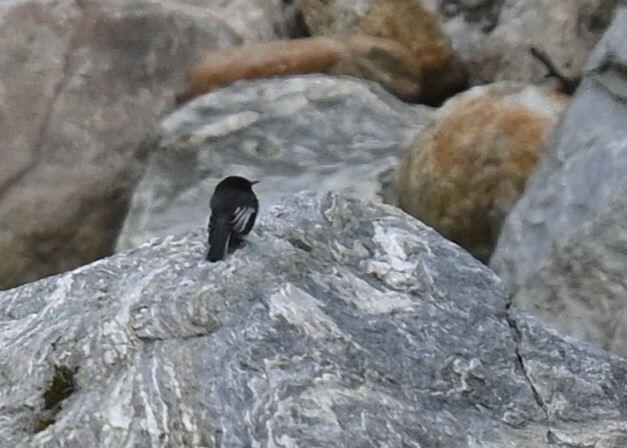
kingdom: Animalia
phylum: Chordata
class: Aves
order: Passeriformes
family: Tyrannidae
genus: Sayornis
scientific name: Sayornis nigricans
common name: Black phoebe
